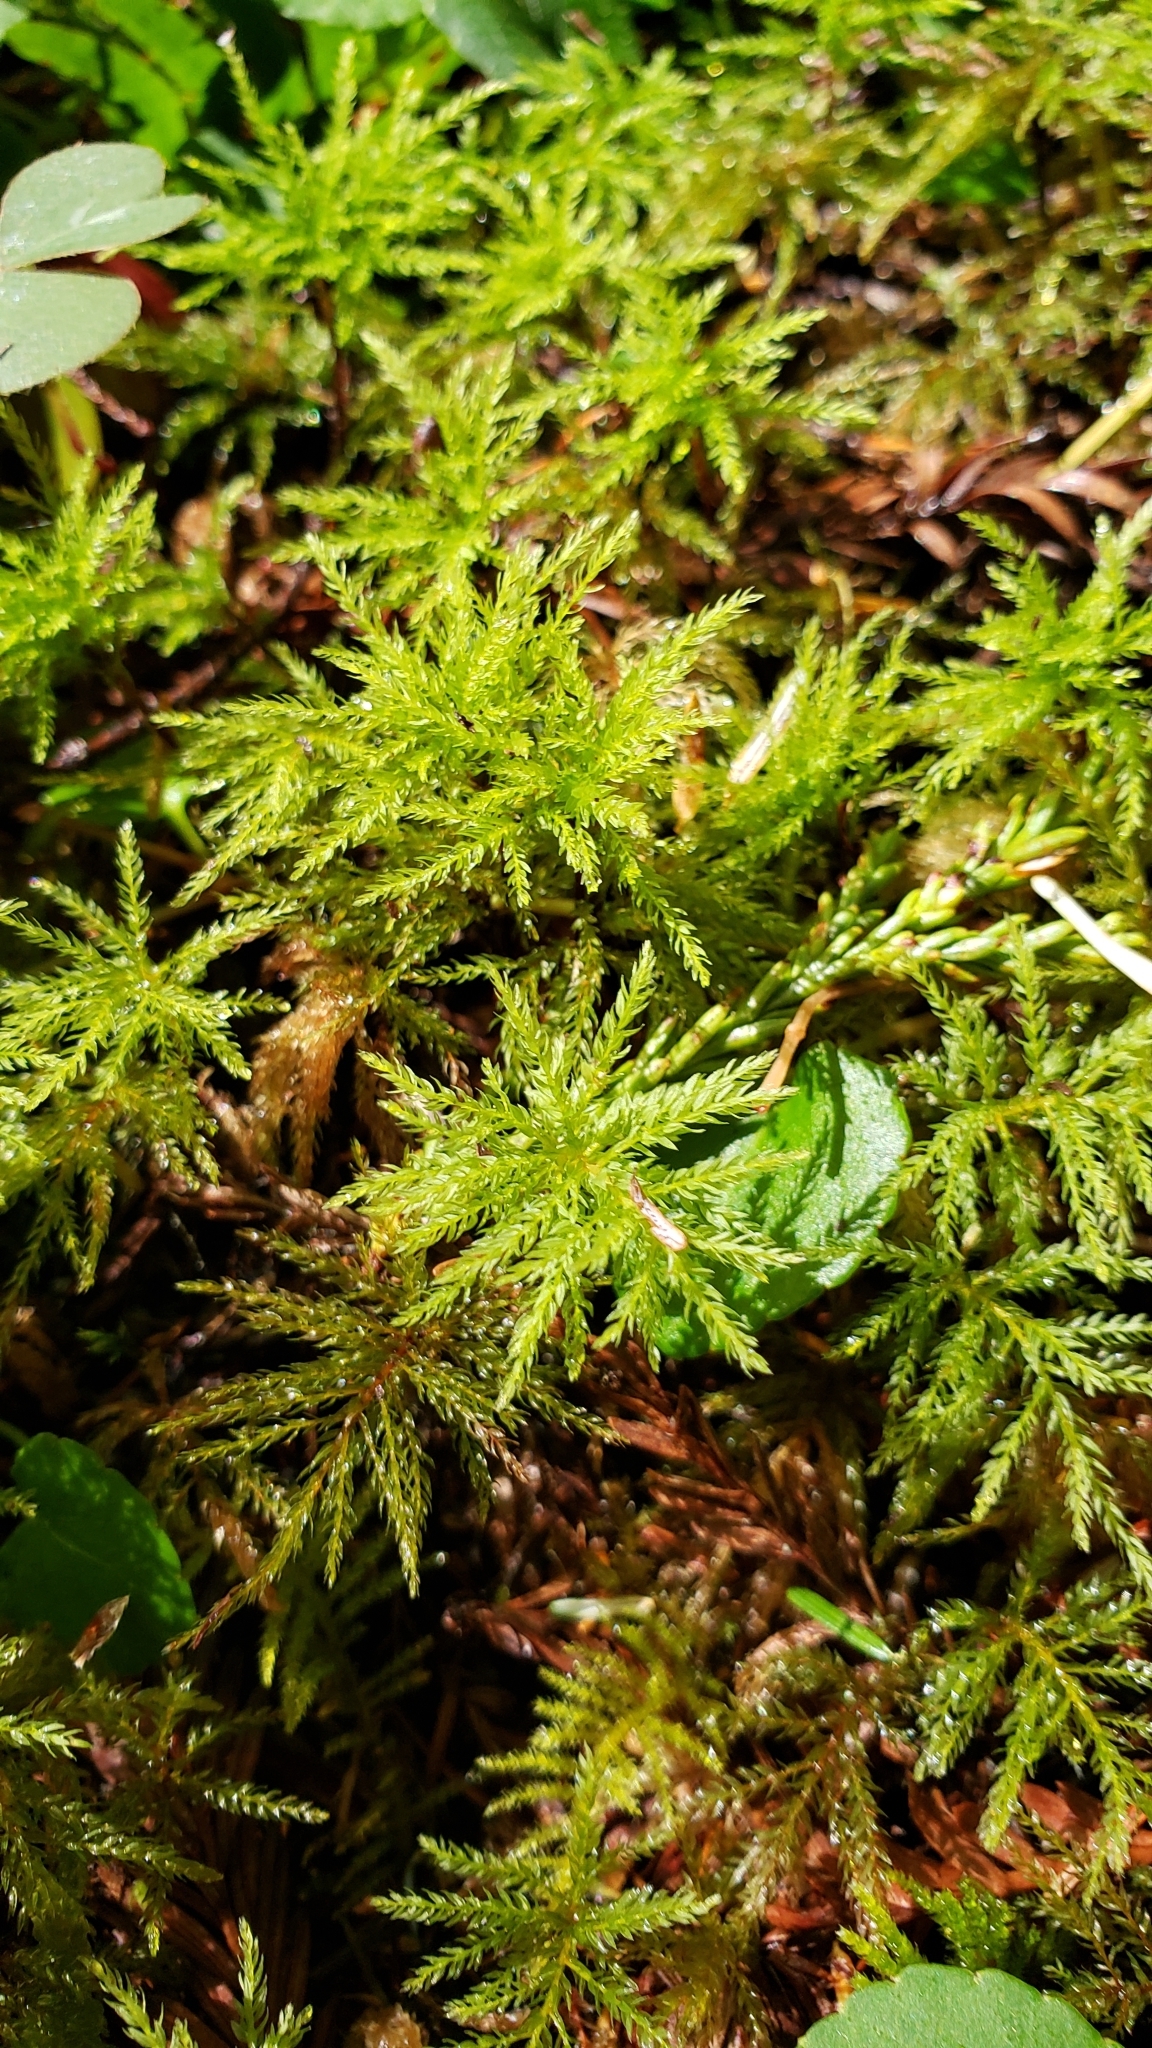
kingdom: Plantae
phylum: Bryophyta
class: Bryopsida
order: Bryales
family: Mniaceae
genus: Leucolepis
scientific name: Leucolepis acanthoneura
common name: Leucolepis umbrella moss
